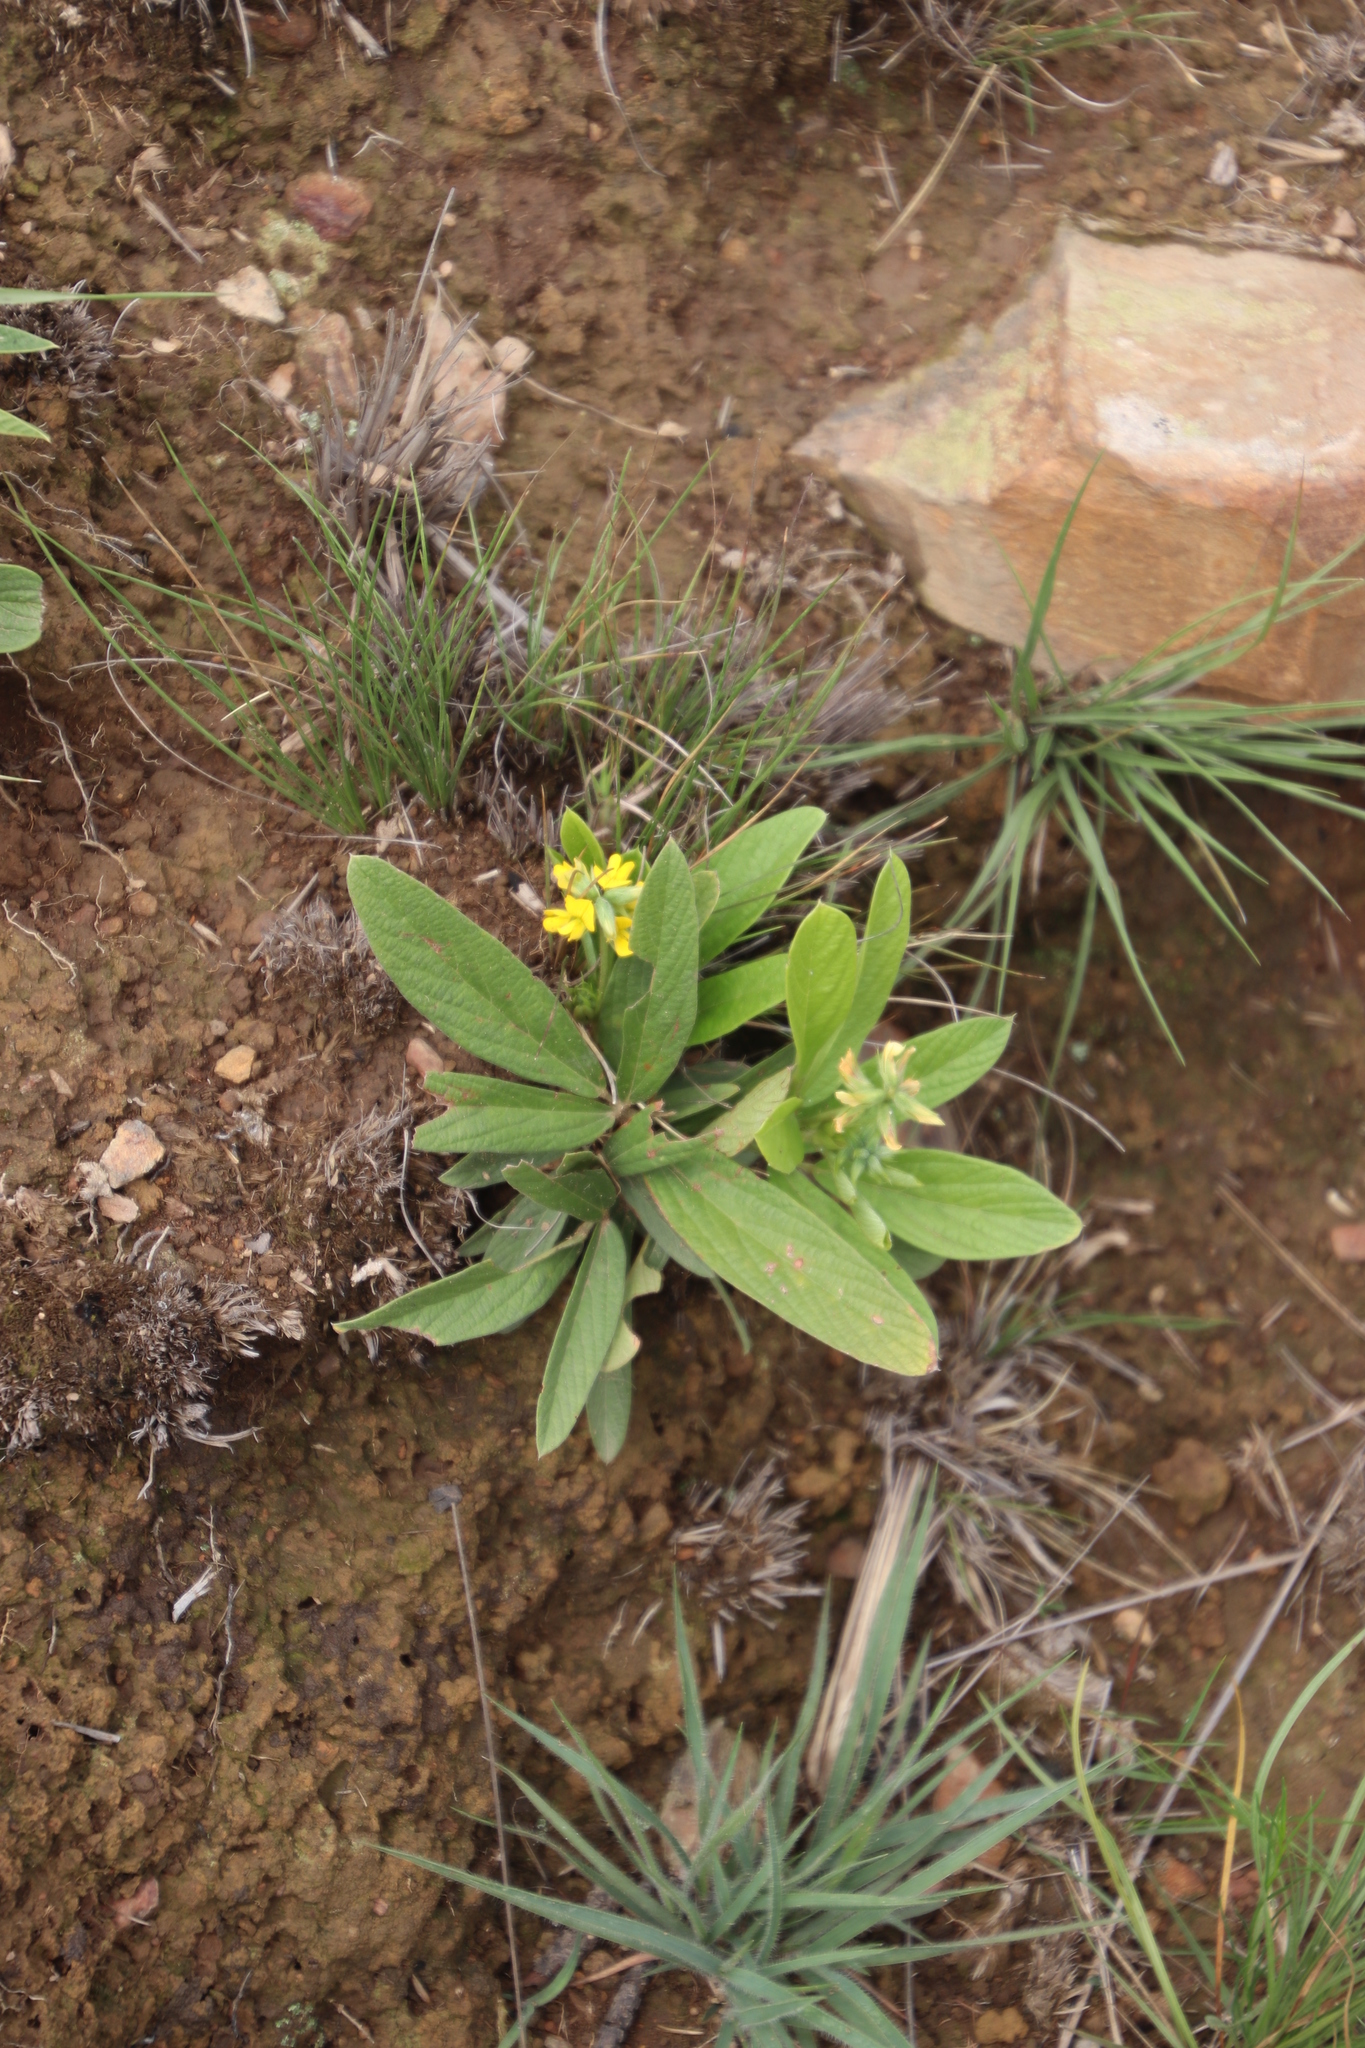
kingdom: Plantae
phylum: Tracheophyta
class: Magnoliopsida
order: Fabales
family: Fabaceae
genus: Eriosema
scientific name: Eriosema ellipticifolium
